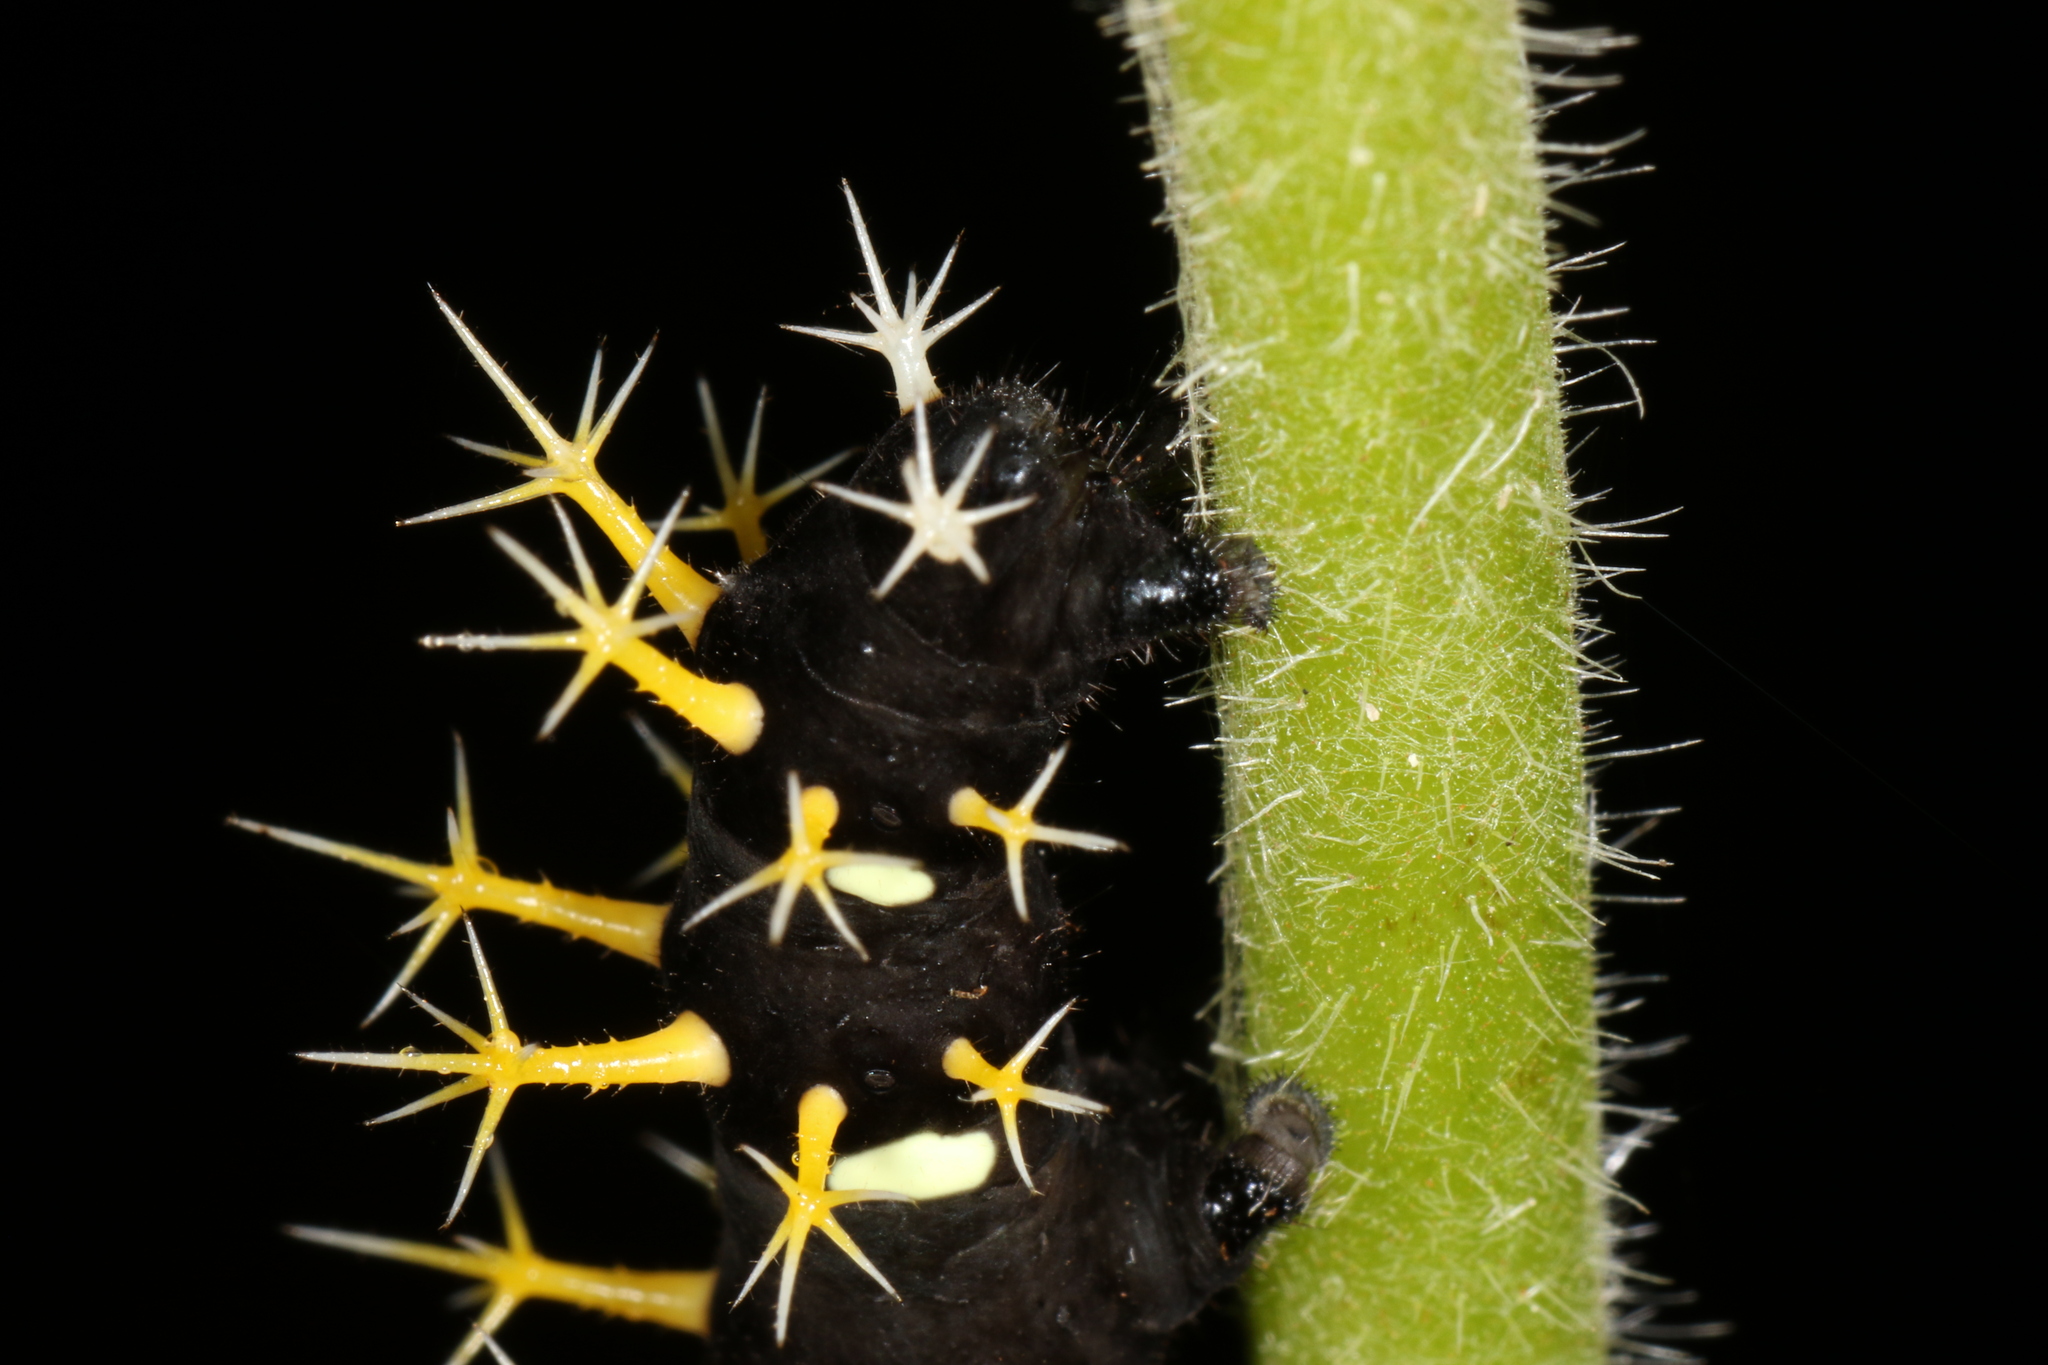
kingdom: Animalia
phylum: Arthropoda
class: Insecta
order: Lepidoptera
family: Nymphalidae
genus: Colobura
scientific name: Colobura dirce
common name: Dirce beauty
